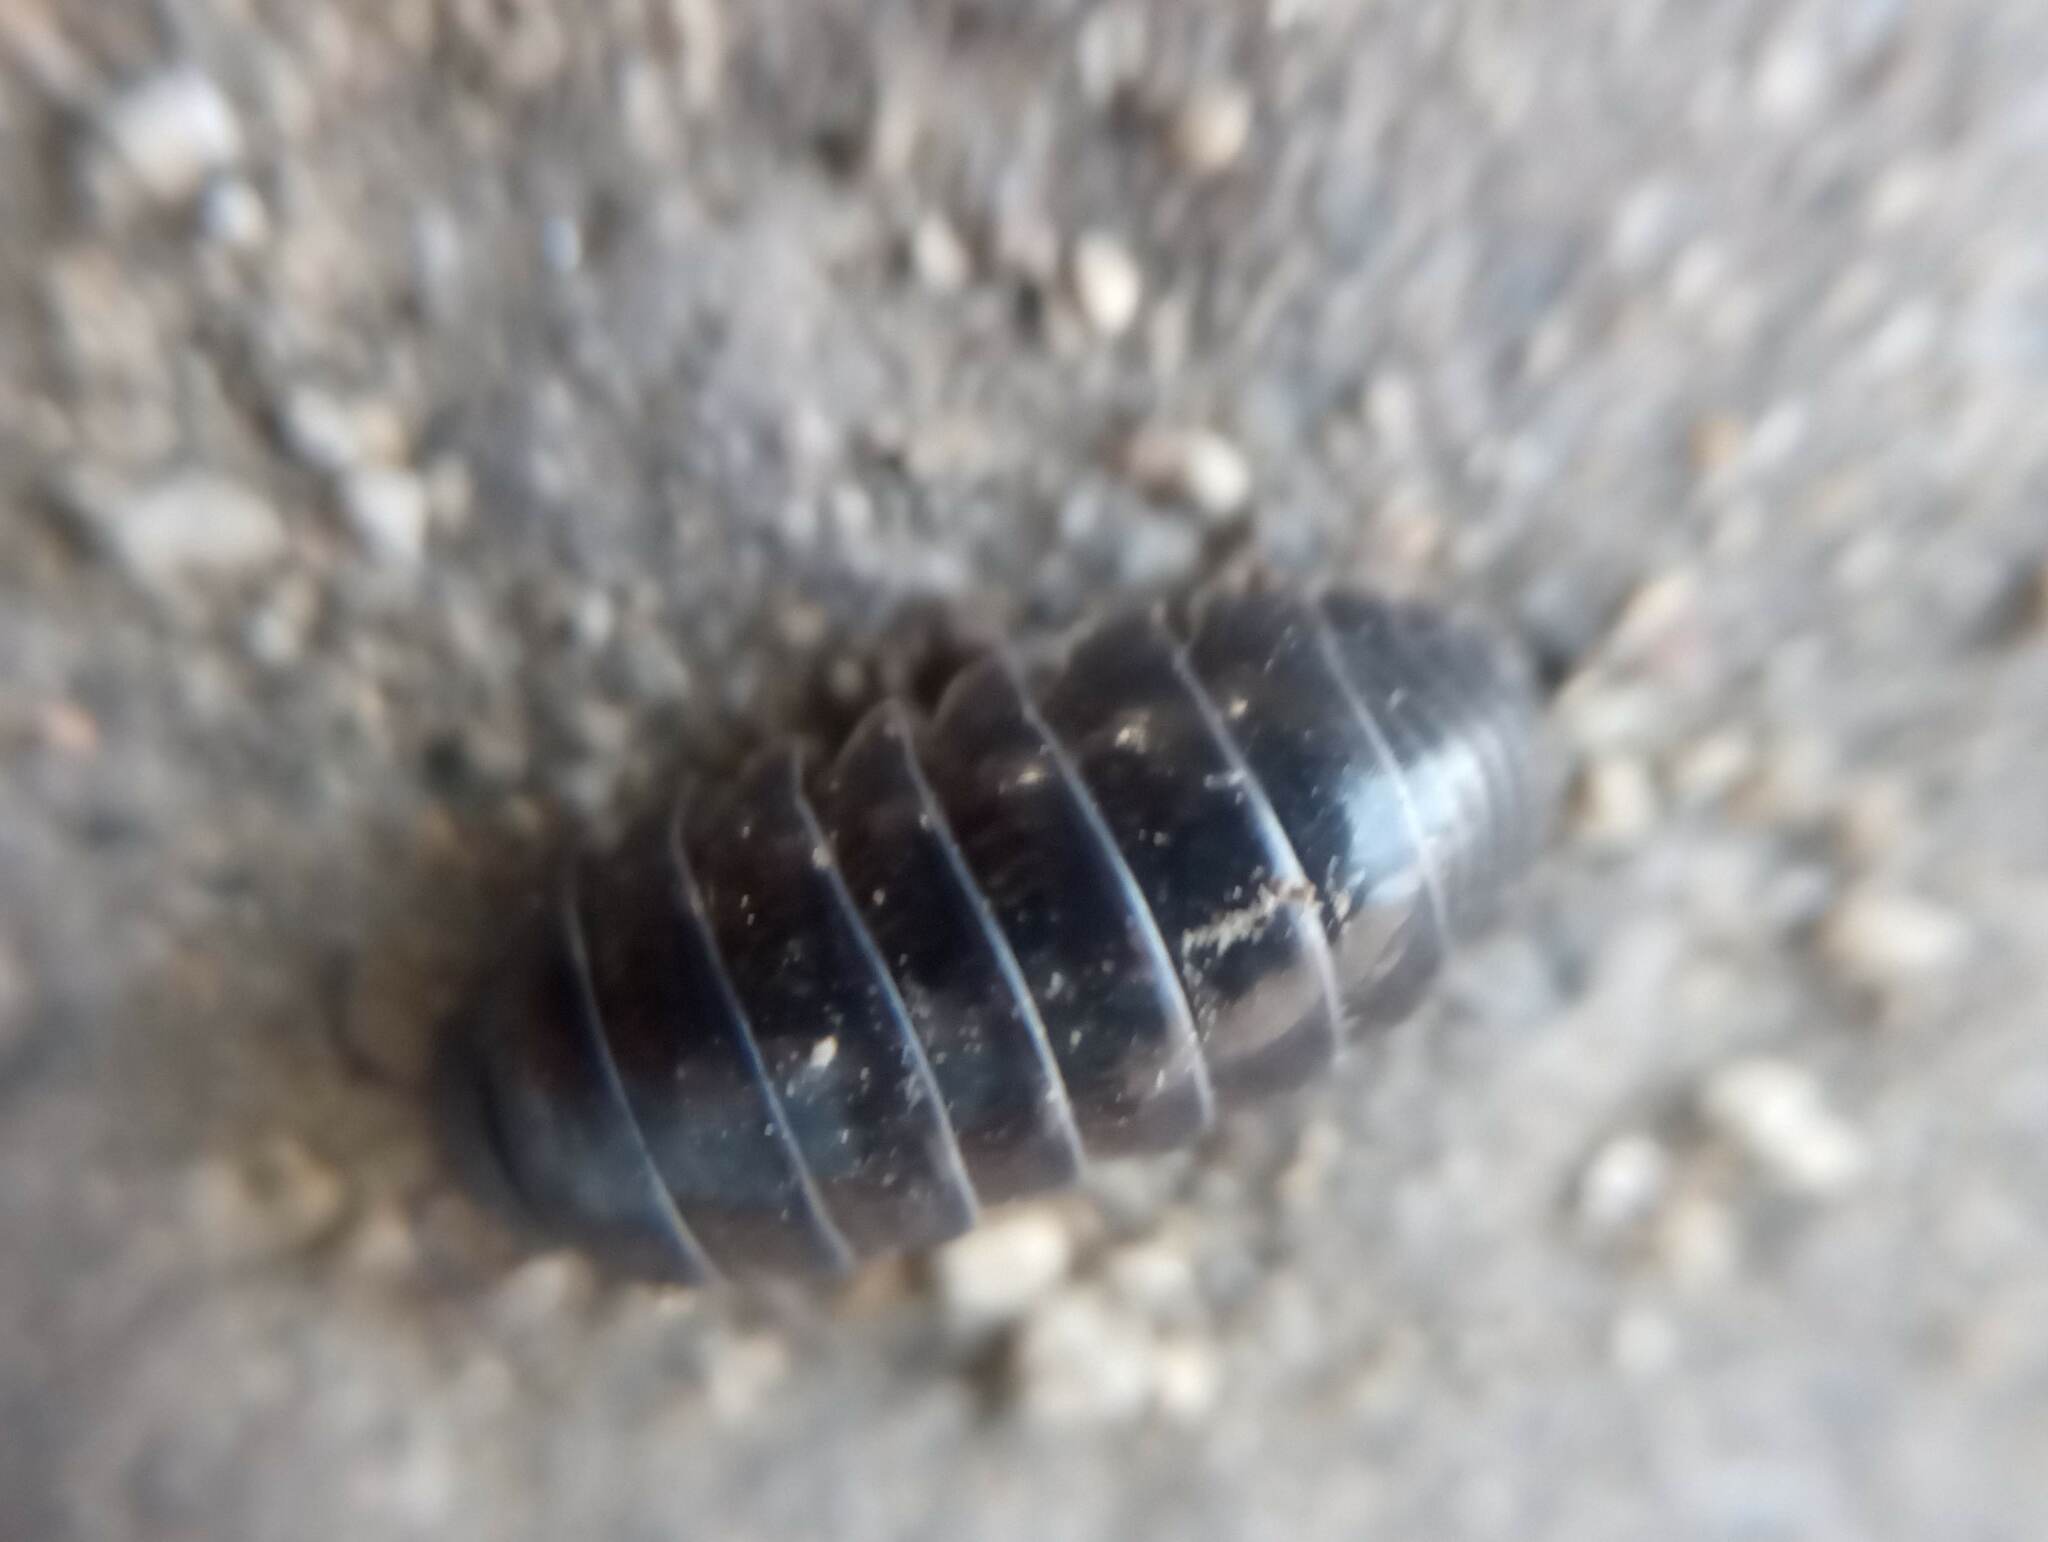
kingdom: Animalia
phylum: Arthropoda
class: Malacostraca
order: Isopoda
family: Armadillidiidae
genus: Armadillidium
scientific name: Armadillidium vulgare
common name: Common pill woodlouse
